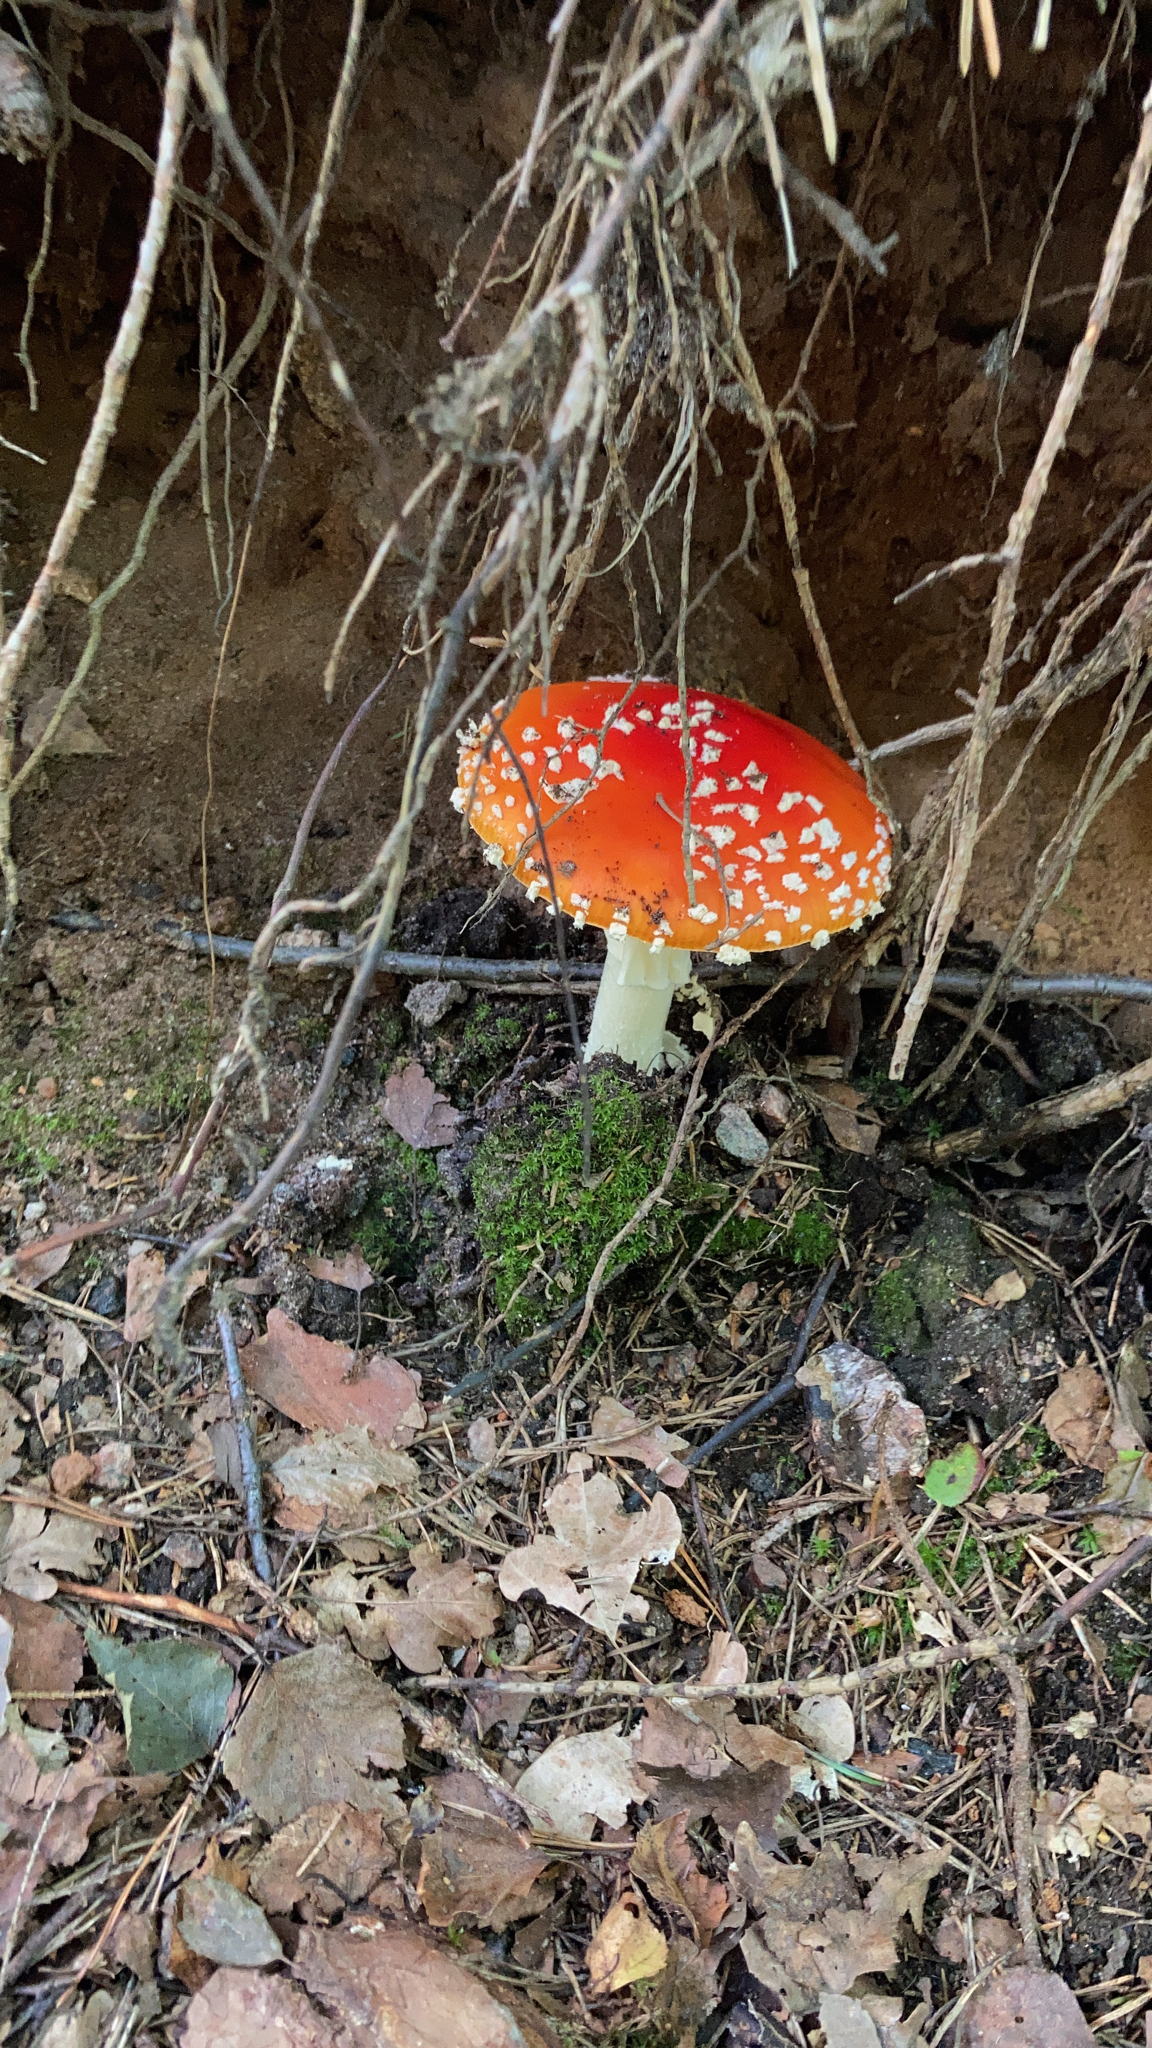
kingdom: Fungi
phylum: Basidiomycota
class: Agaricomycetes
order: Agaricales
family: Amanitaceae
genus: Amanita
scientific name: Amanita muscaria
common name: Fly agaric
